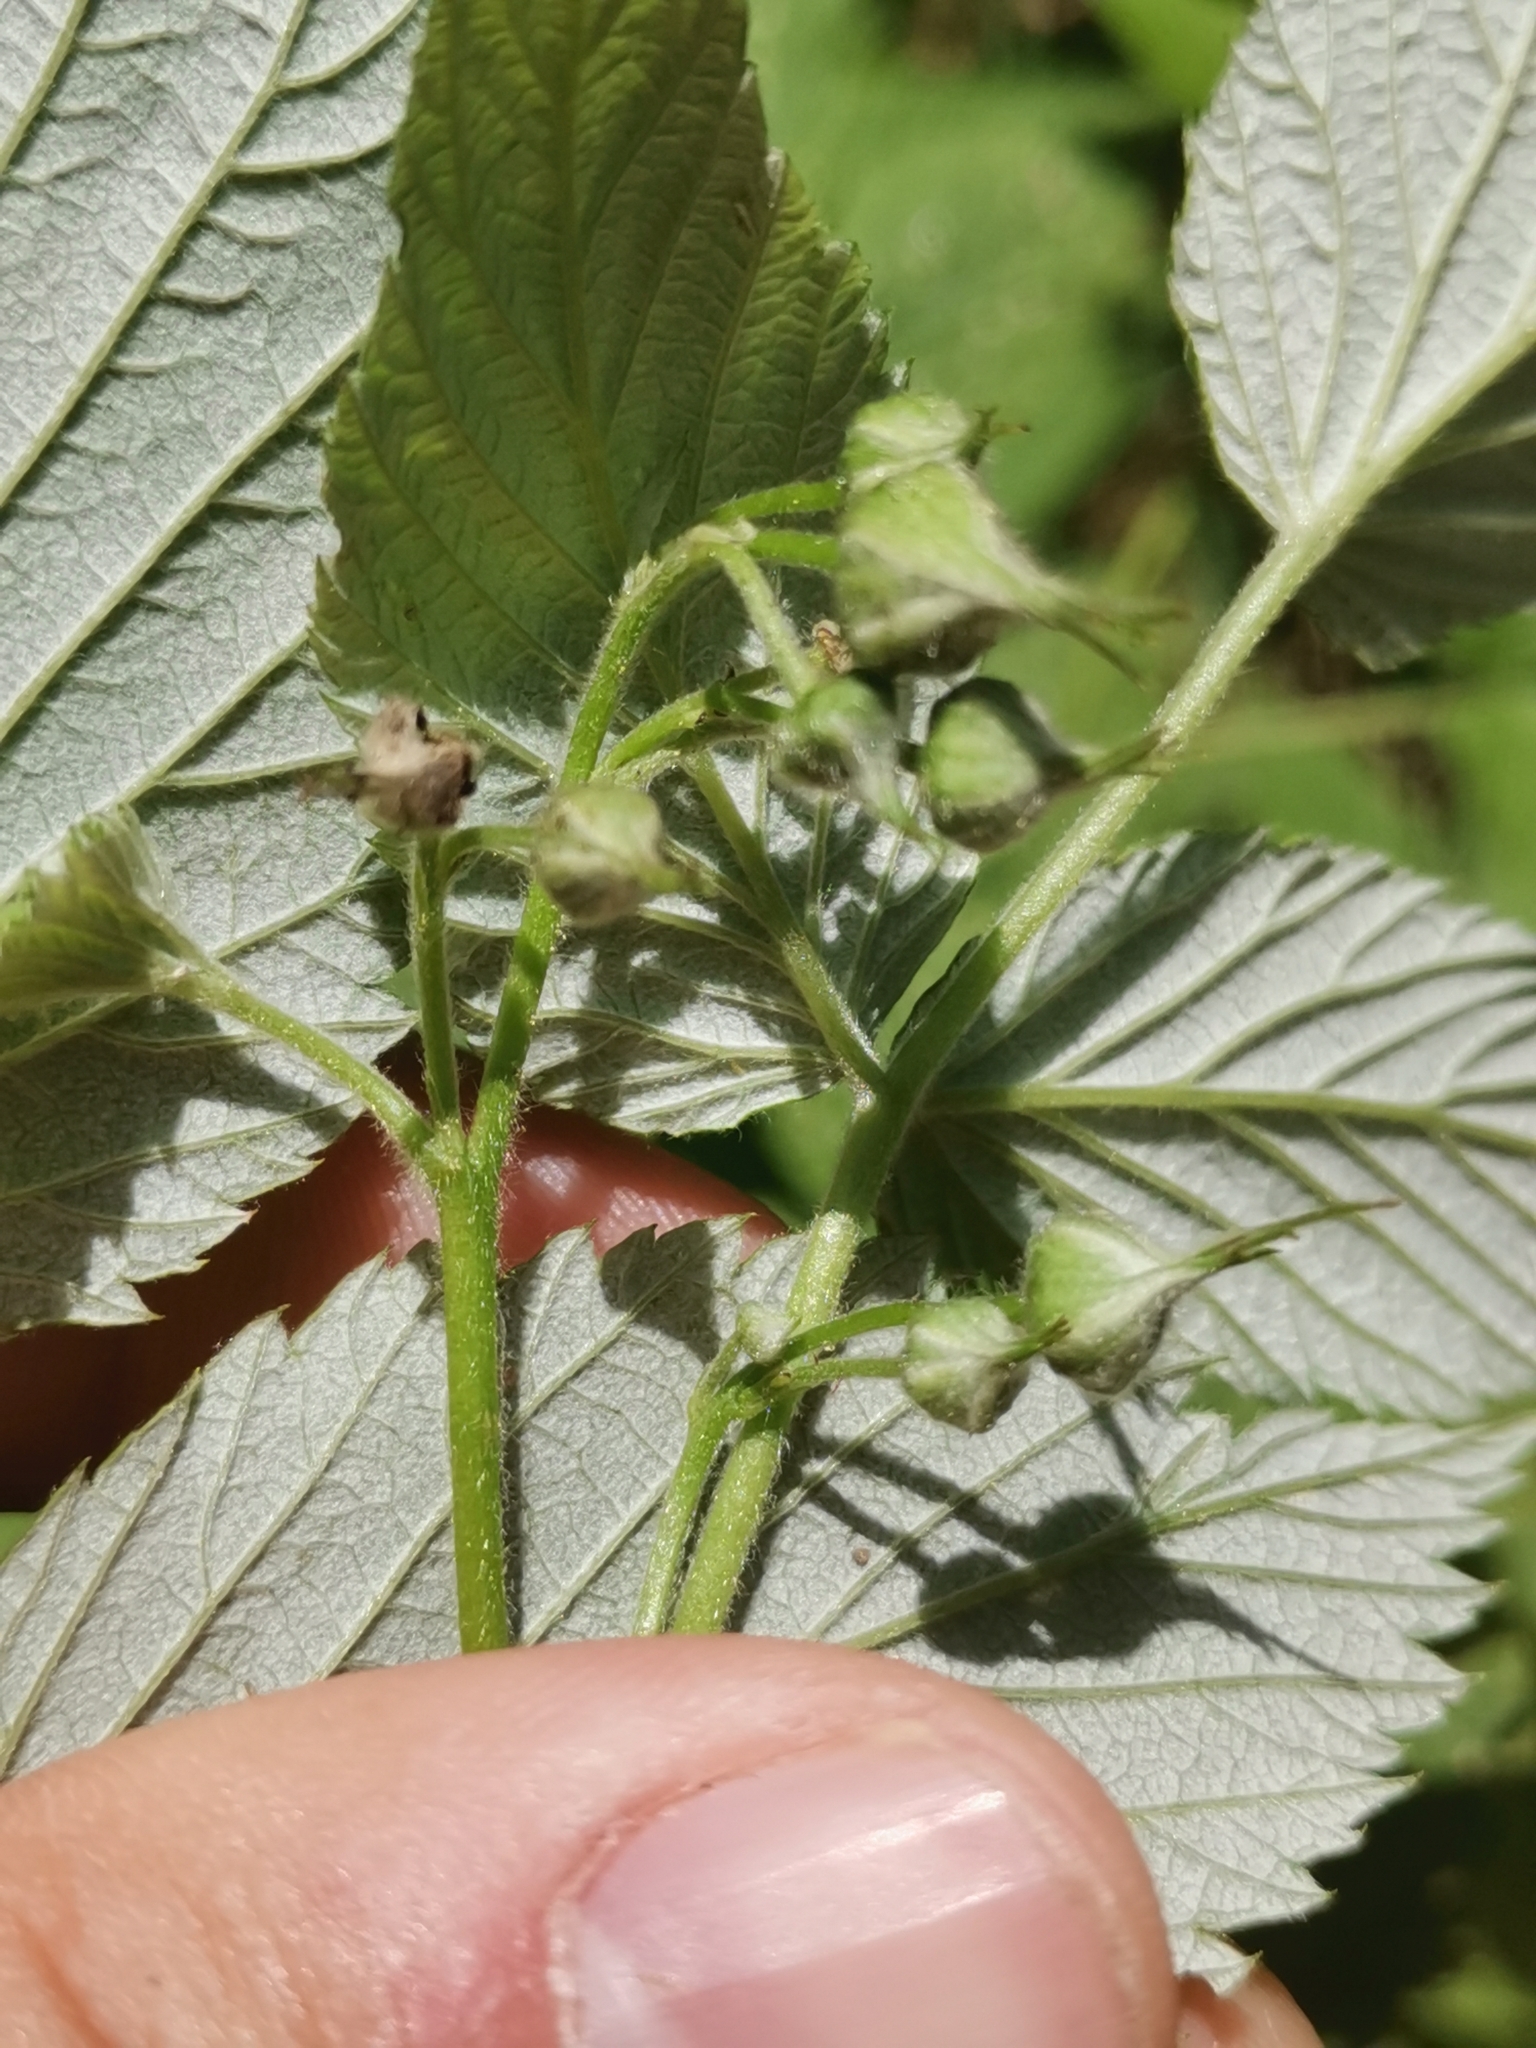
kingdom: Plantae
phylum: Tracheophyta
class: Magnoliopsida
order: Rosales
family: Rosaceae
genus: Rubus
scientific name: Rubus idaeus
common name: Raspberry
